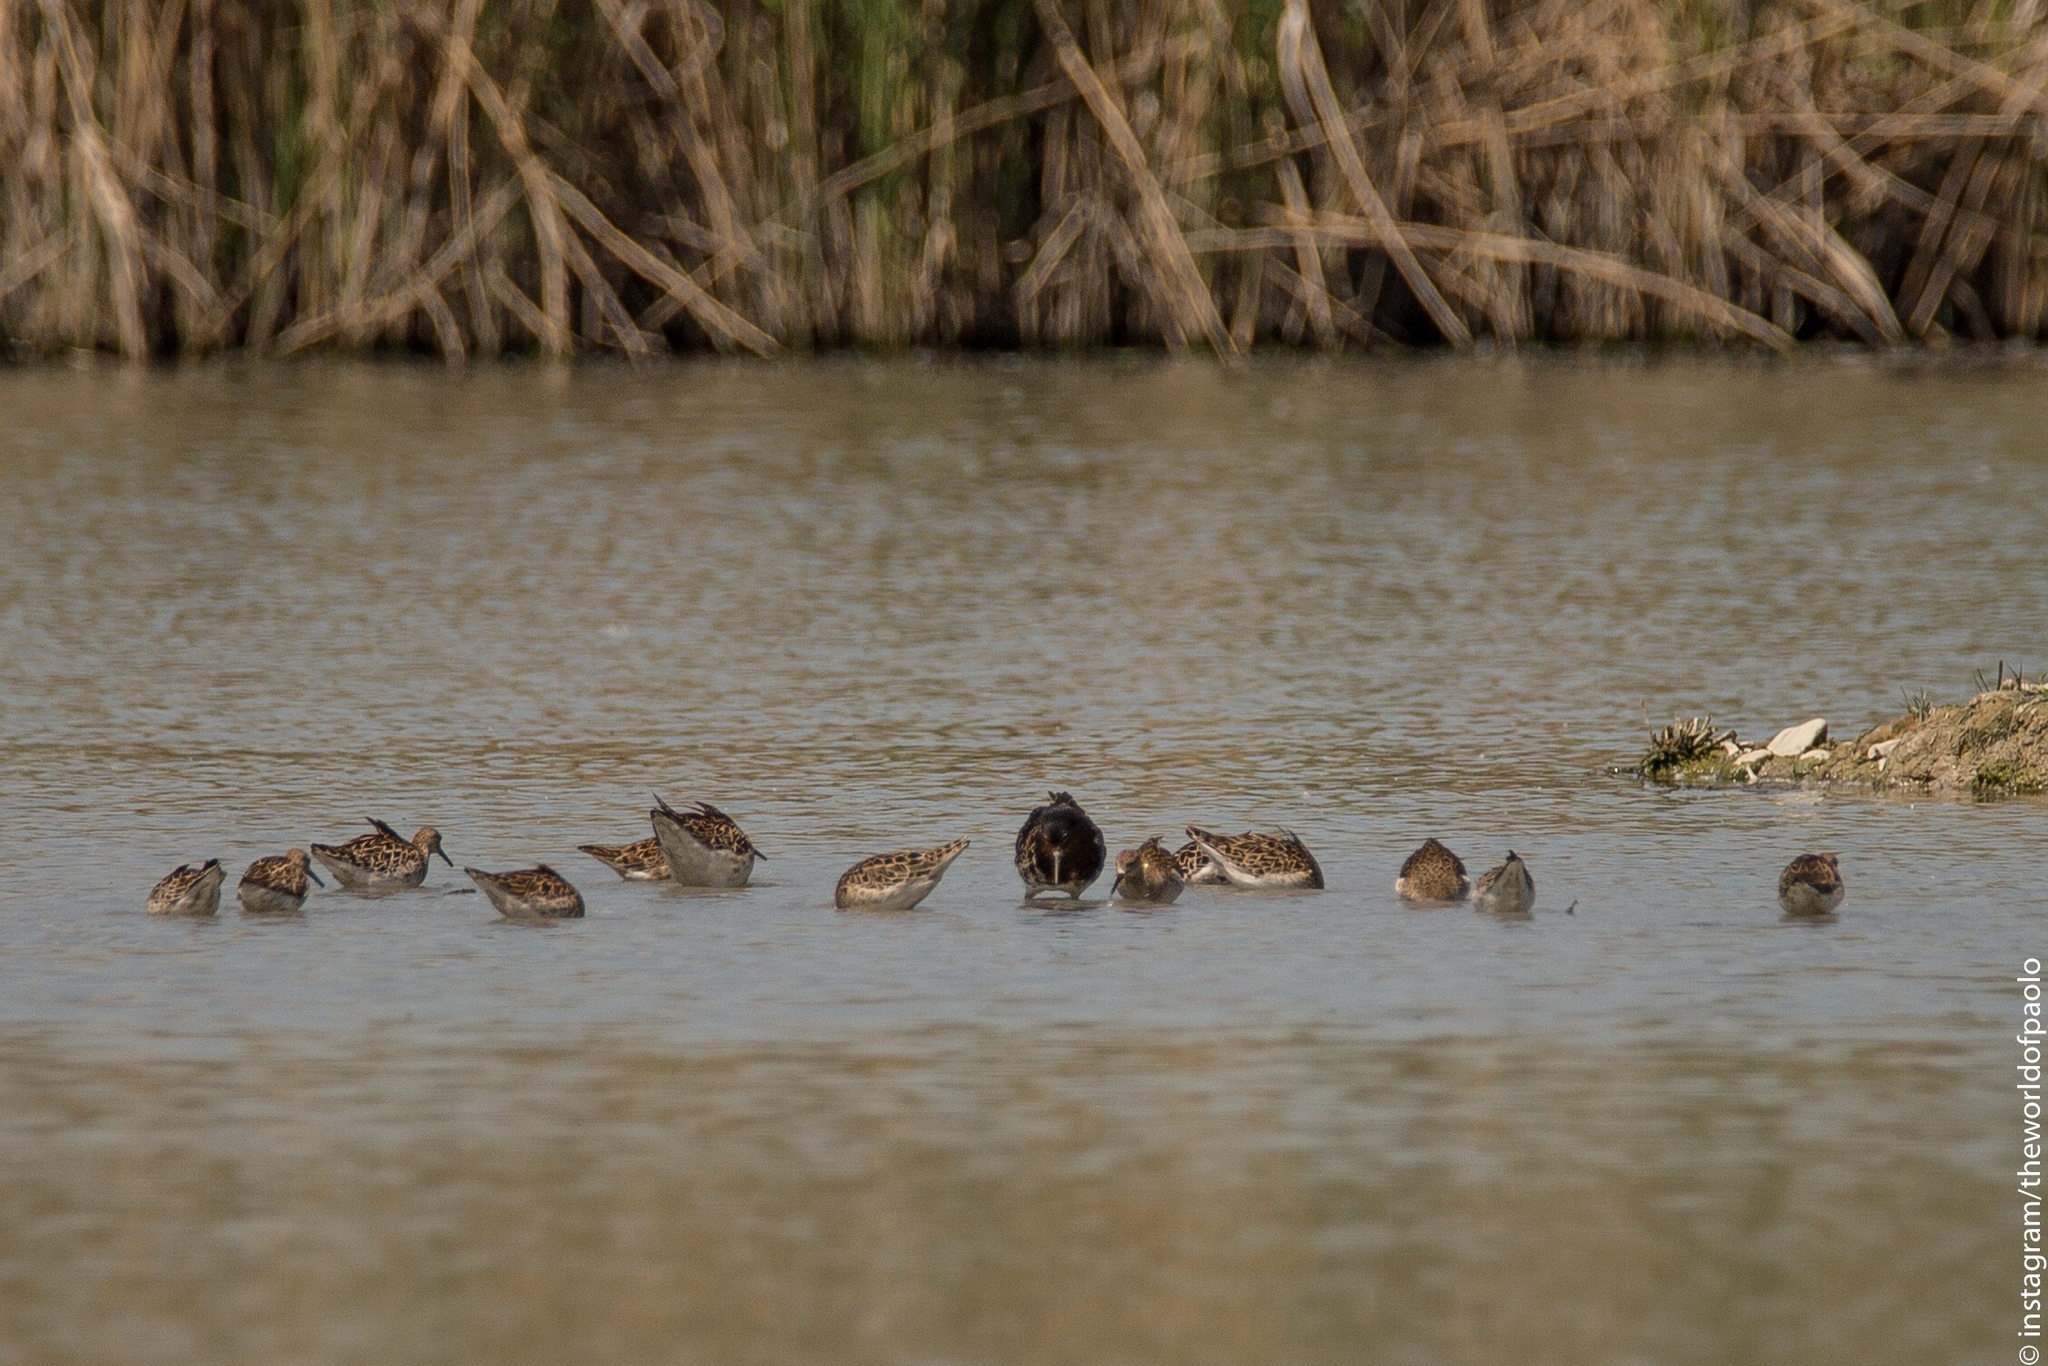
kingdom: Animalia
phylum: Chordata
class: Aves
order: Charadriiformes
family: Scolopacidae
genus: Calidris
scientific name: Calidris pugnax
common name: Ruff
